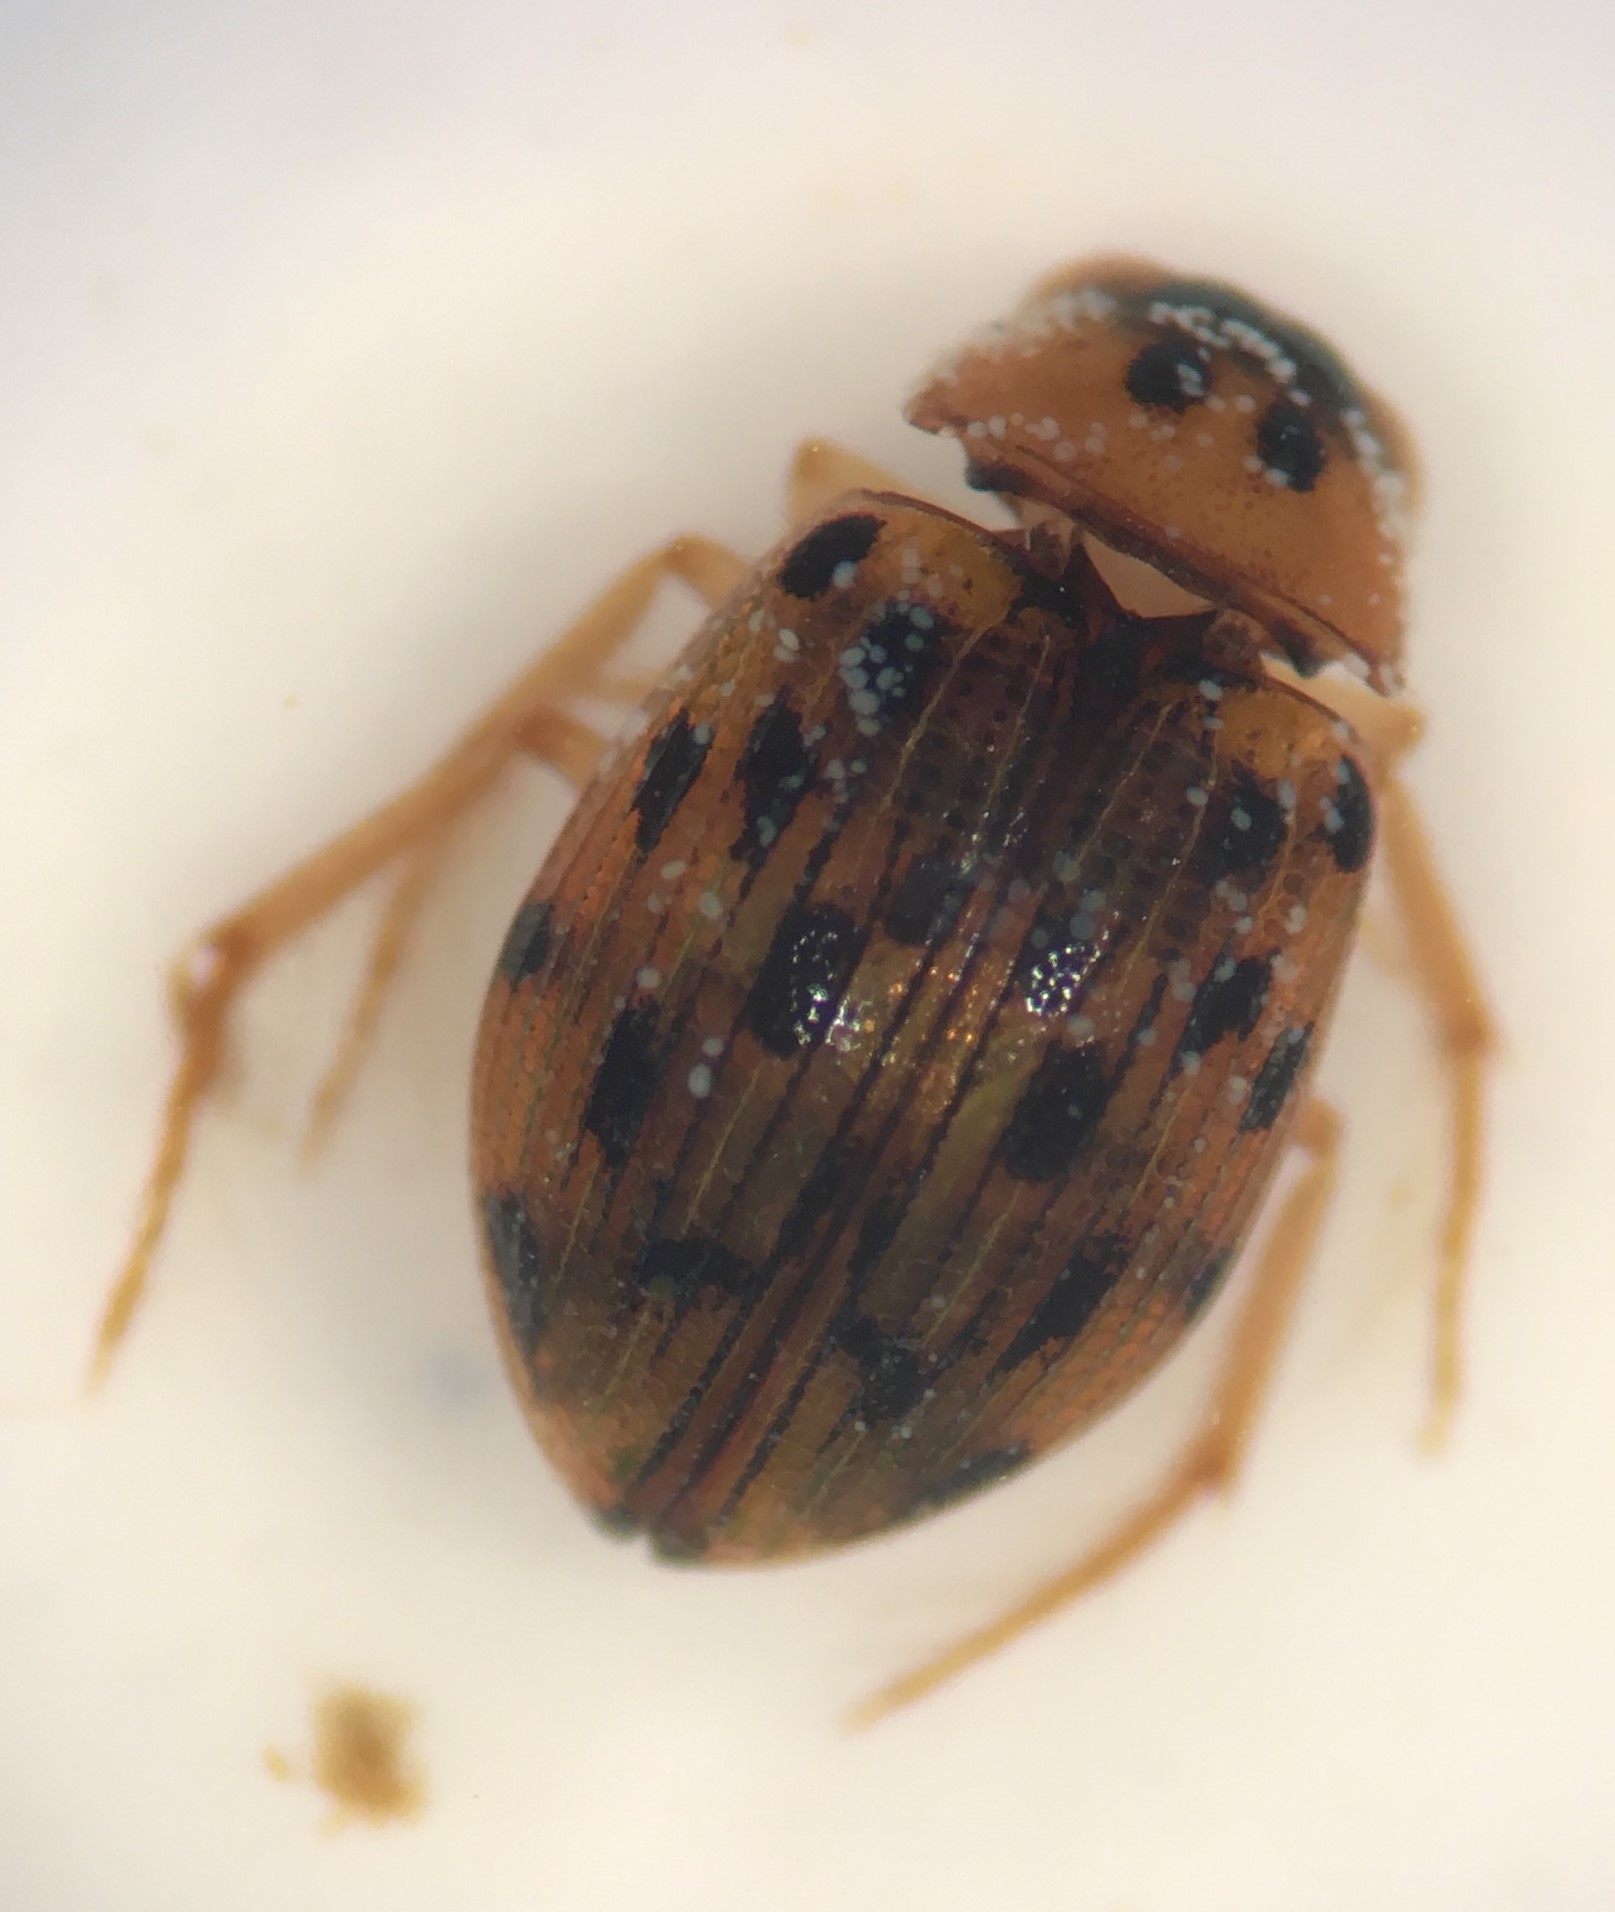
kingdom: Animalia
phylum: Arthropoda
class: Insecta
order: Coleoptera
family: Hydrophilidae
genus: Berosus
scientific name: Berosus pantherinus
